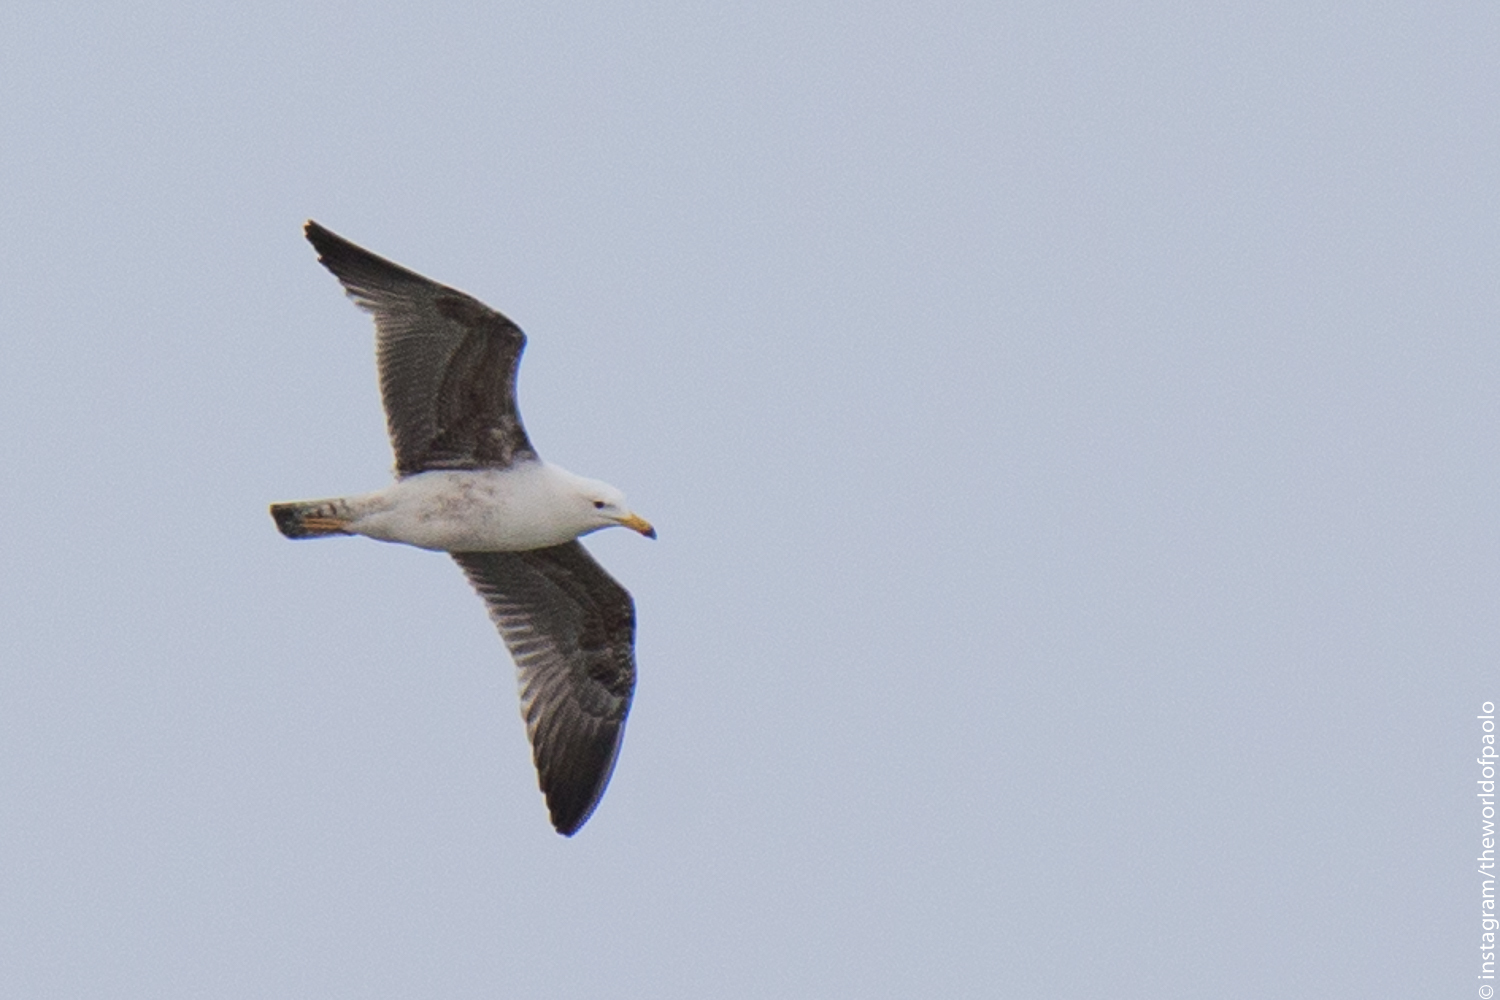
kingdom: Animalia
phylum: Chordata
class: Aves
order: Charadriiformes
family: Laridae
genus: Larus
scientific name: Larus michahellis
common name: Yellow-legged gull
